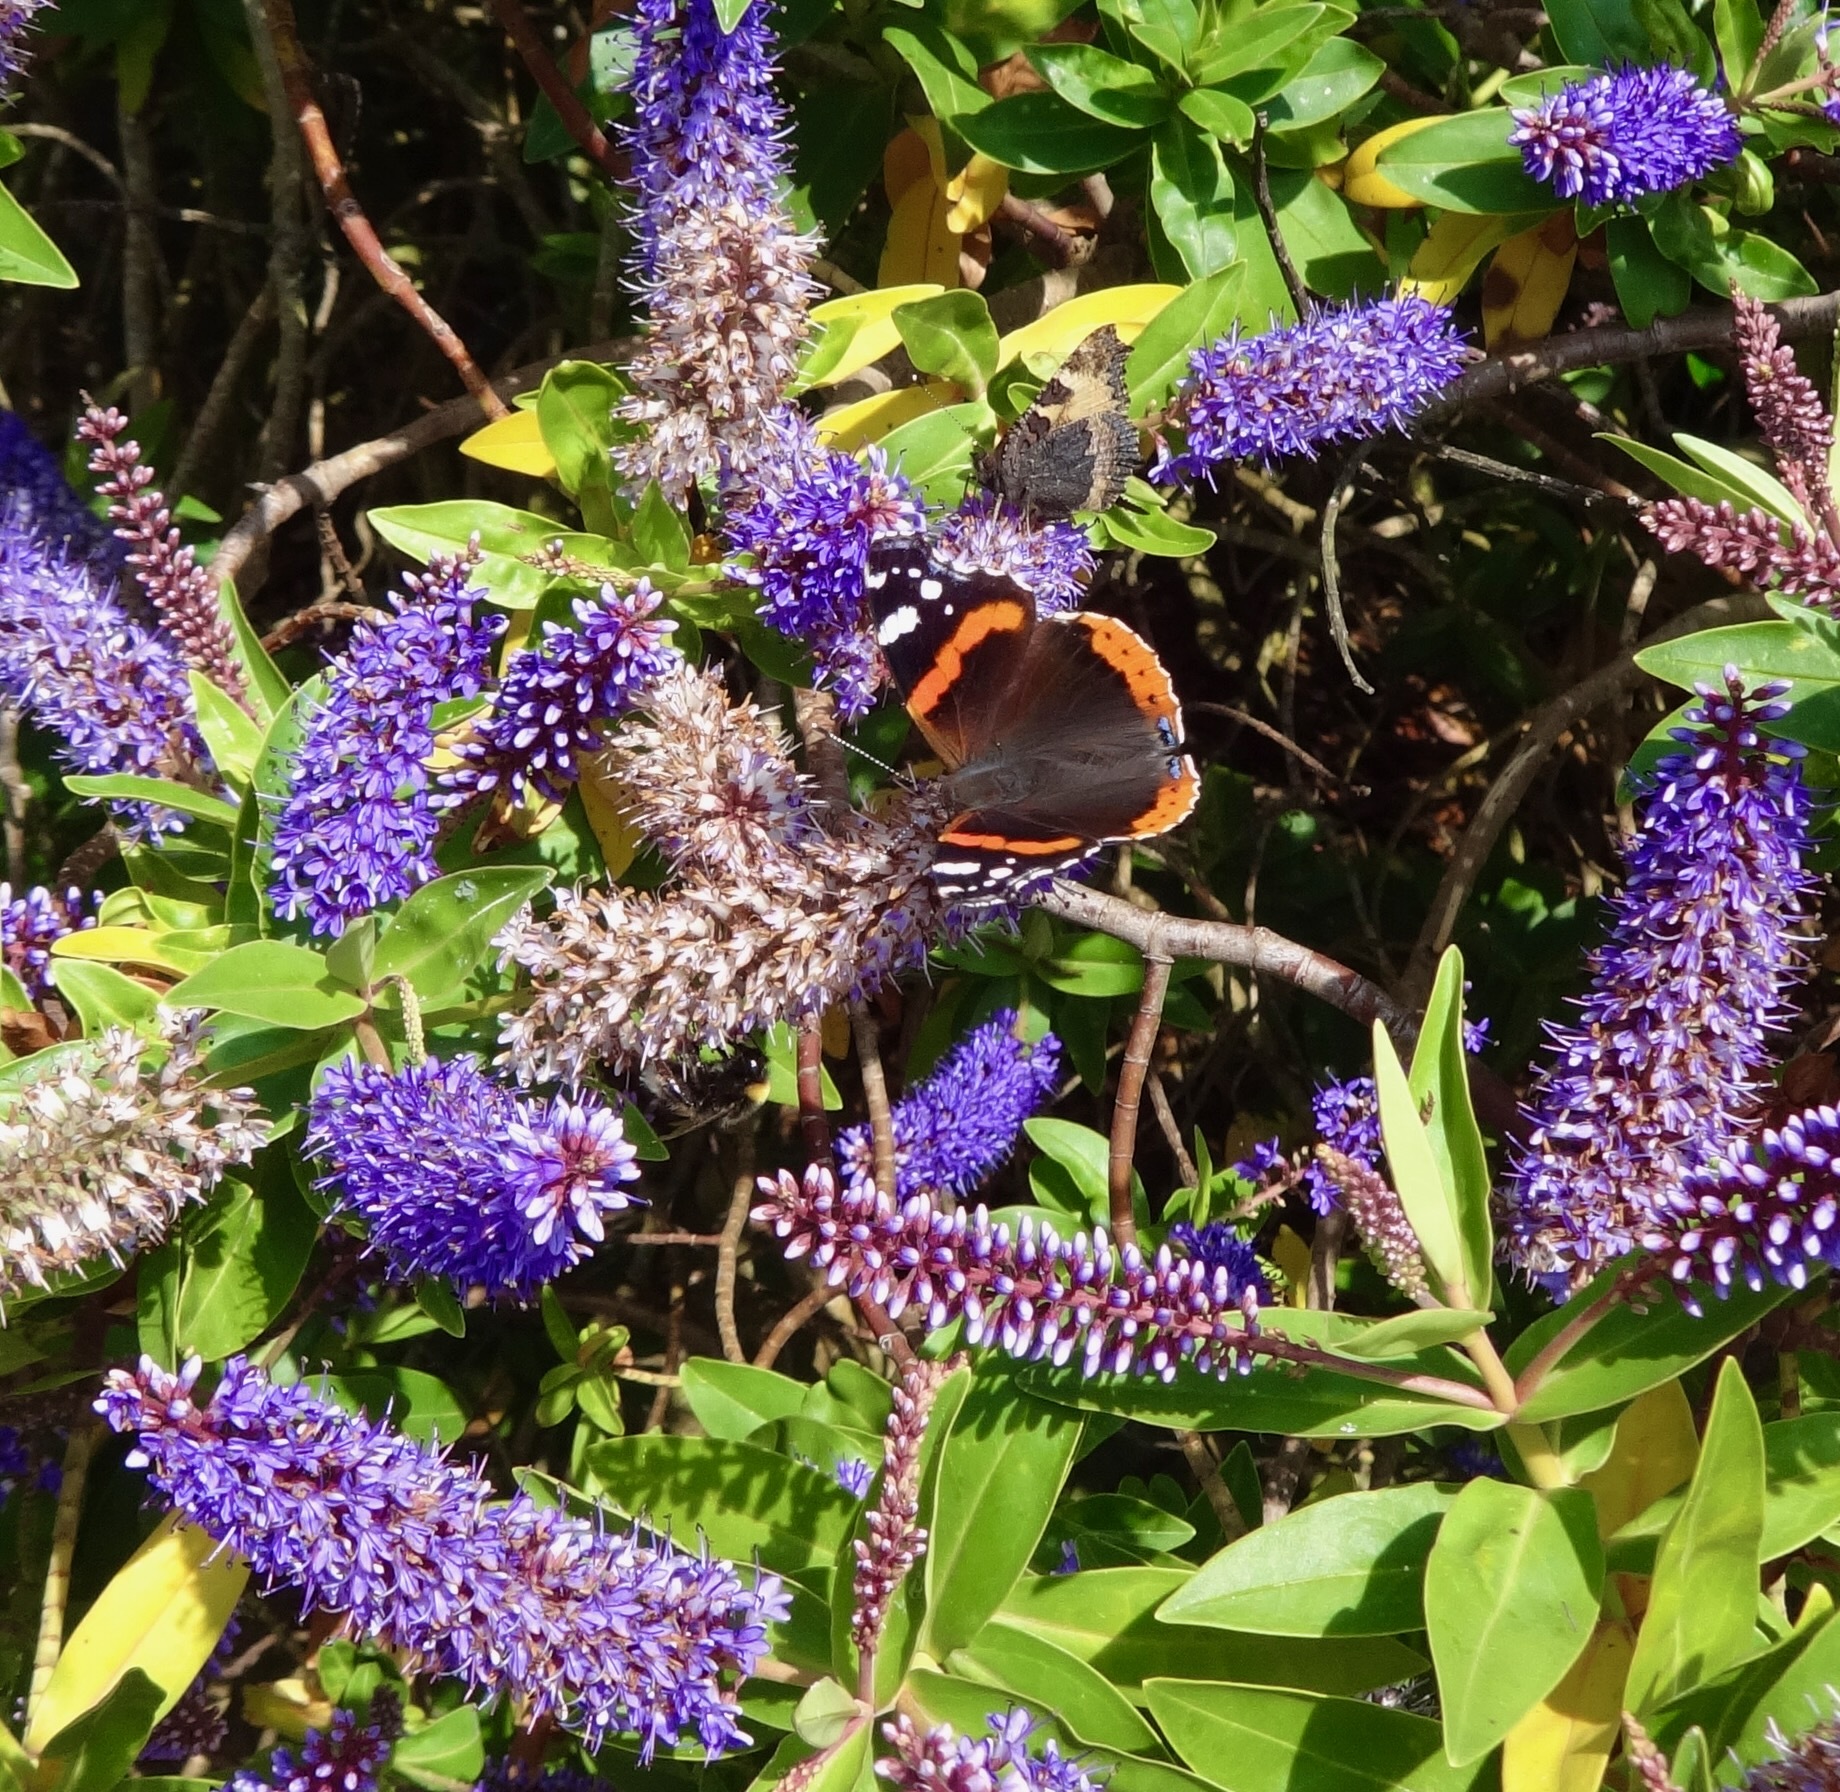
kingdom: Animalia
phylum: Arthropoda
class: Insecta
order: Lepidoptera
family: Nymphalidae
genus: Vanessa
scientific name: Vanessa atalanta
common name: Red admiral
